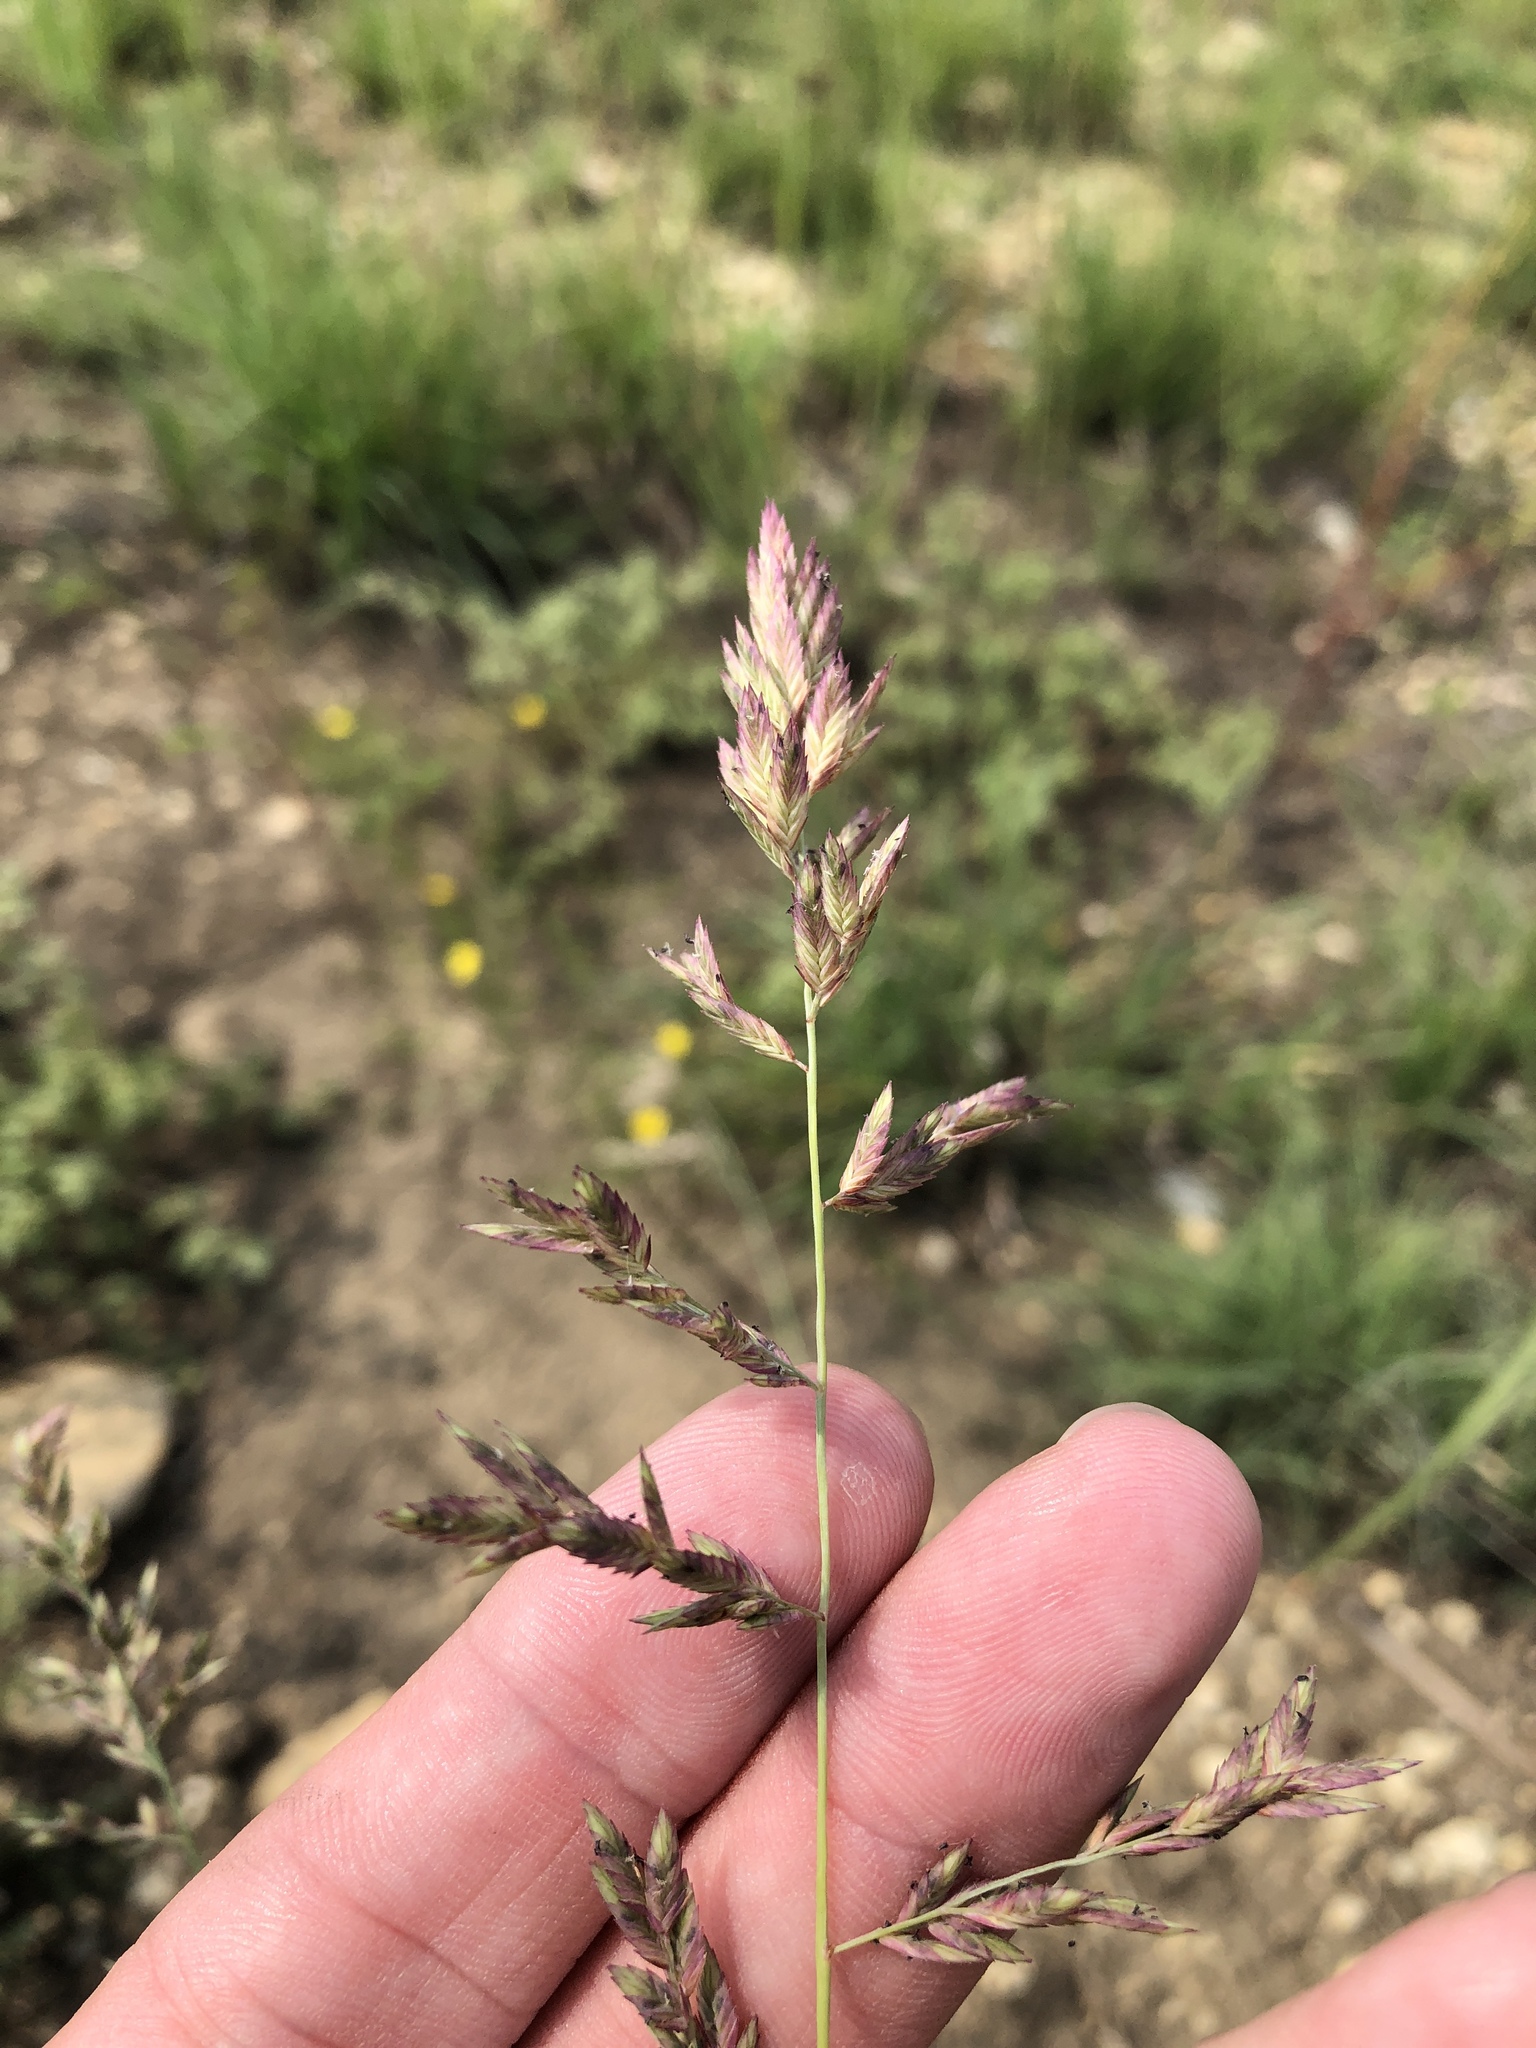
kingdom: Plantae
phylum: Tracheophyta
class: Liliopsida
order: Poales
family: Poaceae
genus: Eragrostis
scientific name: Eragrostis secundiflora
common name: Red love grass
